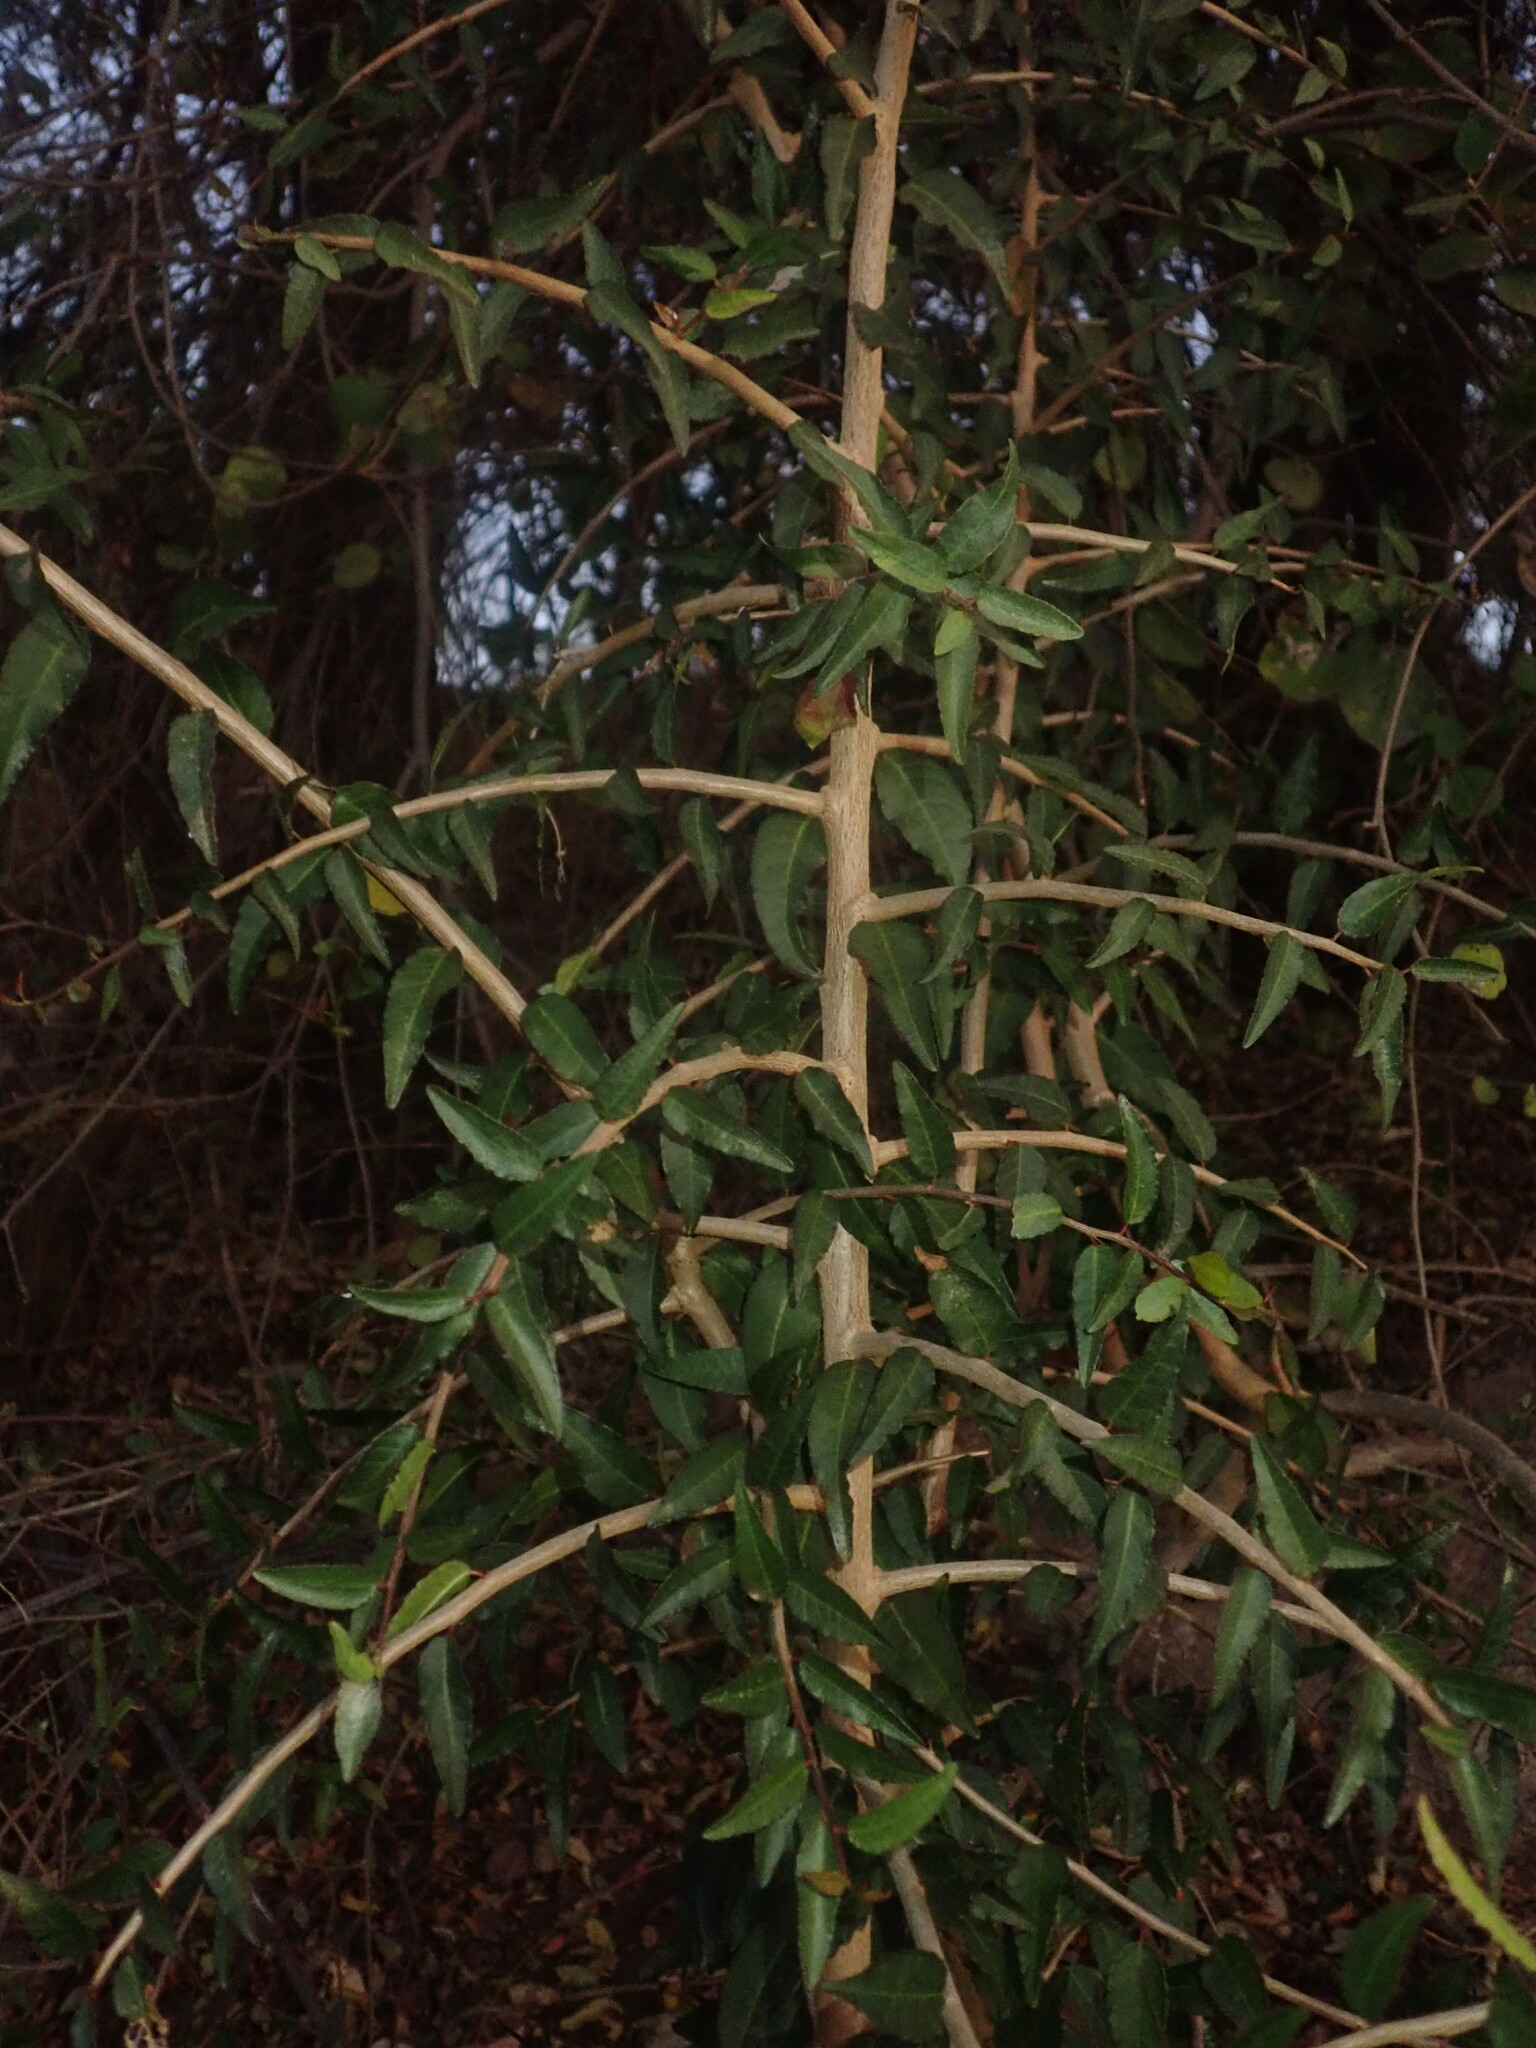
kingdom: Plantae
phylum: Tracheophyta
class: Magnoliopsida
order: Malpighiales
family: Euphorbiaceae
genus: Spirostachys
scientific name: Spirostachys africana
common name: Tamboti
